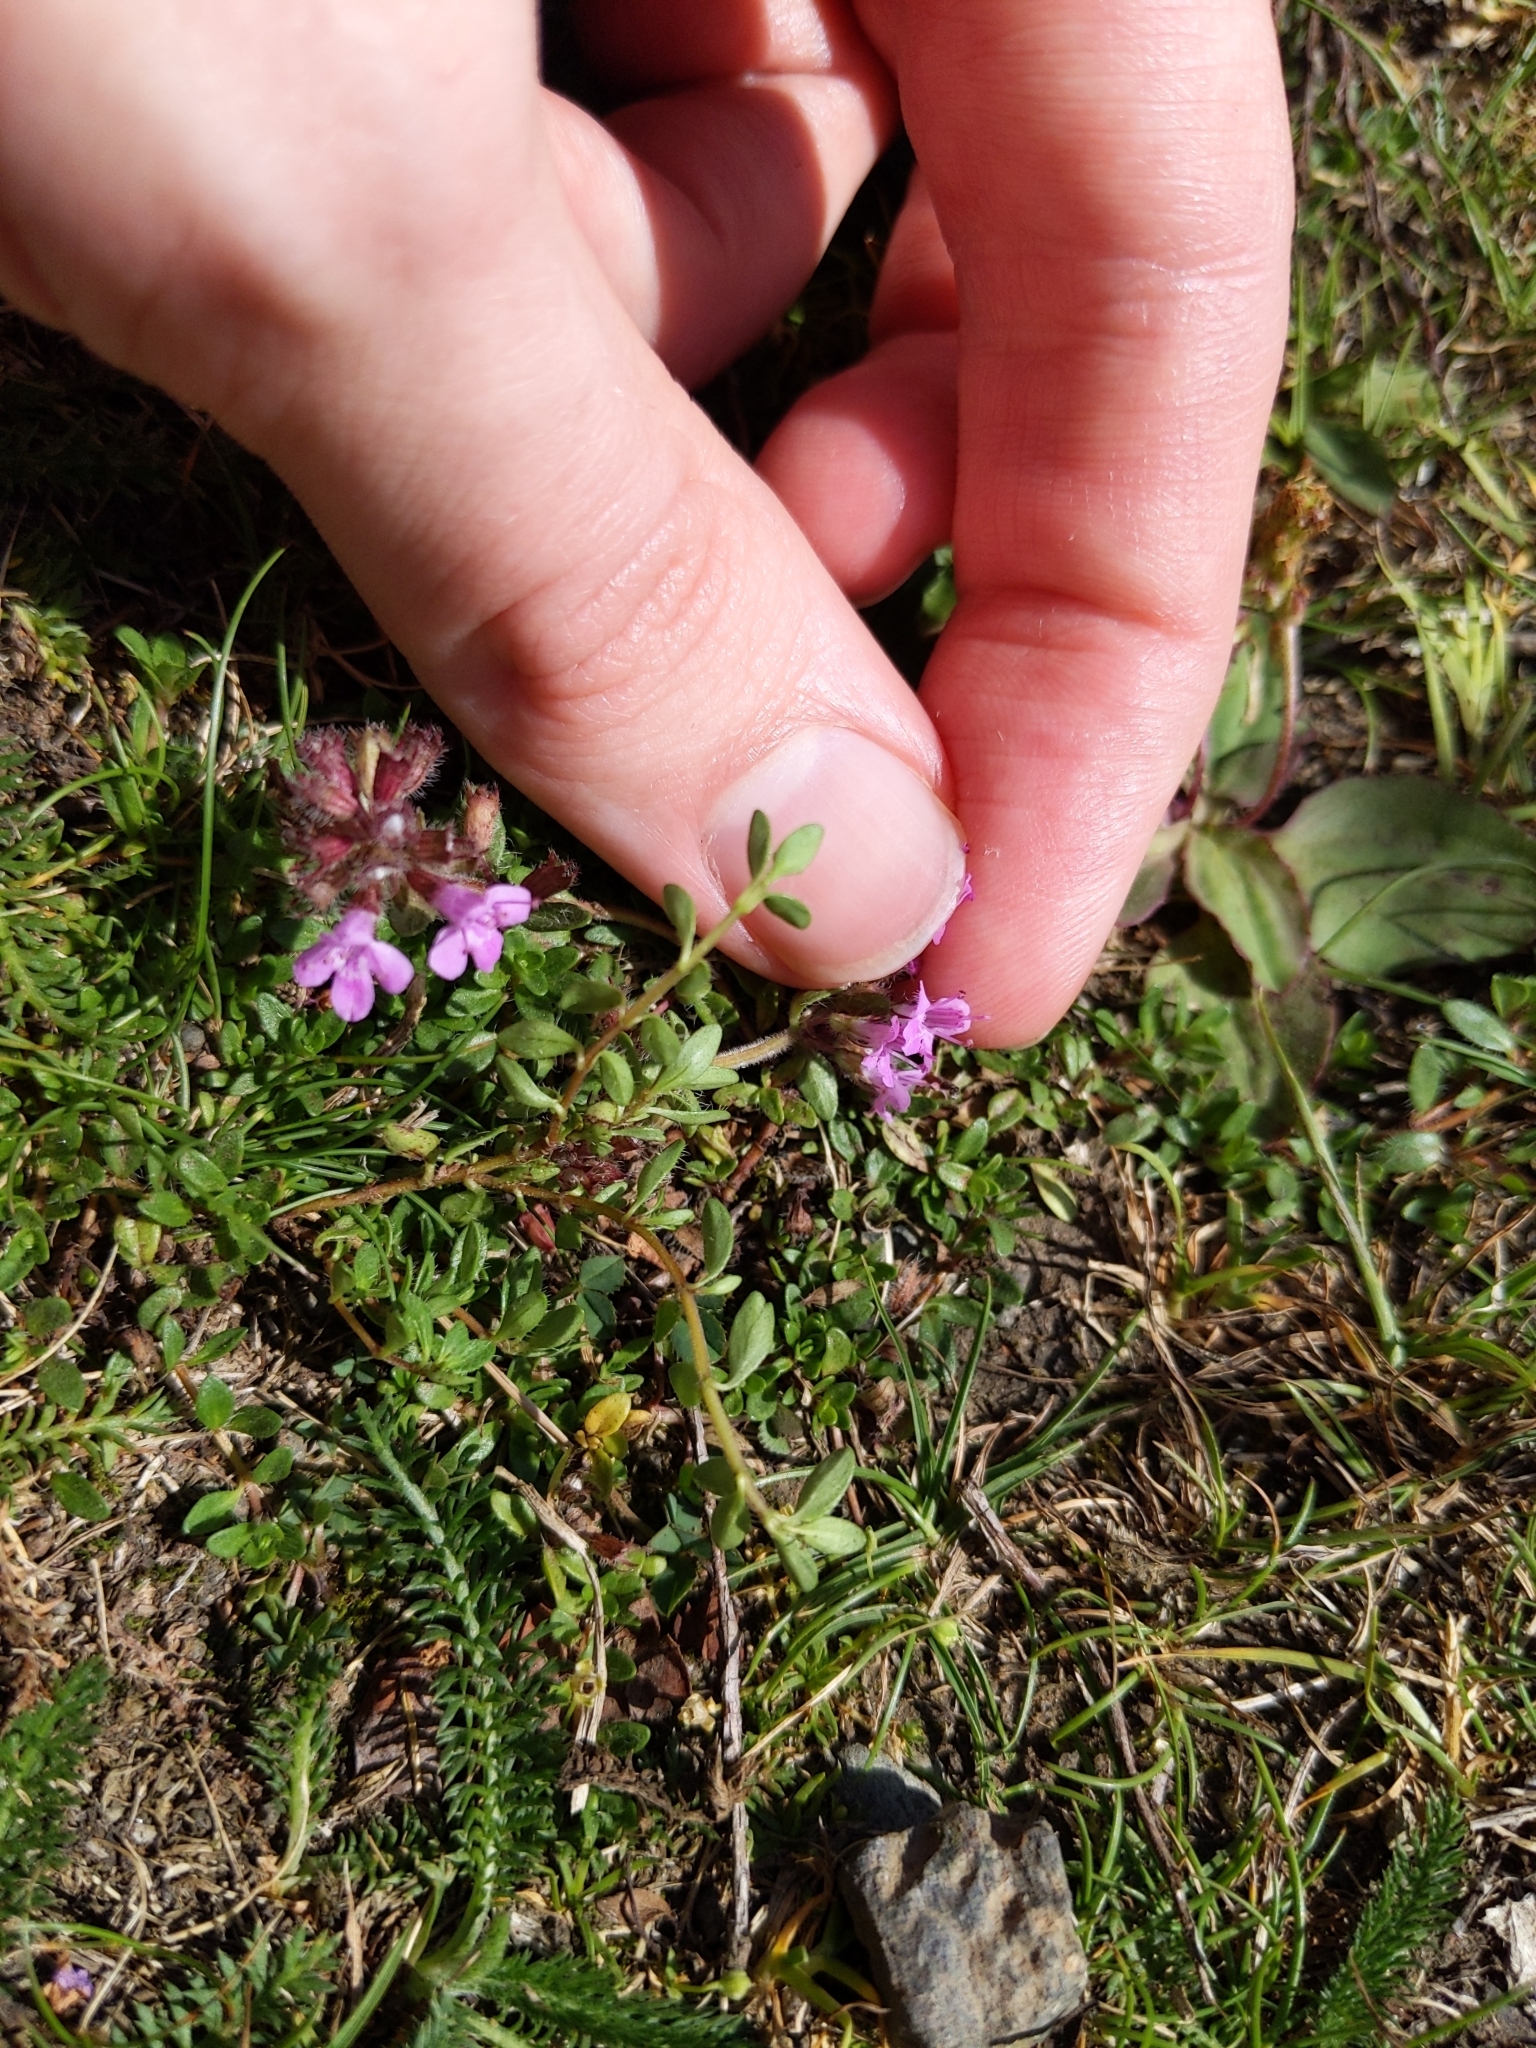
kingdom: Plantae
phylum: Tracheophyta
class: Magnoliopsida
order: Lamiales
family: Lamiaceae
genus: Thymus
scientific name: Thymus praecox
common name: Wild thyme
